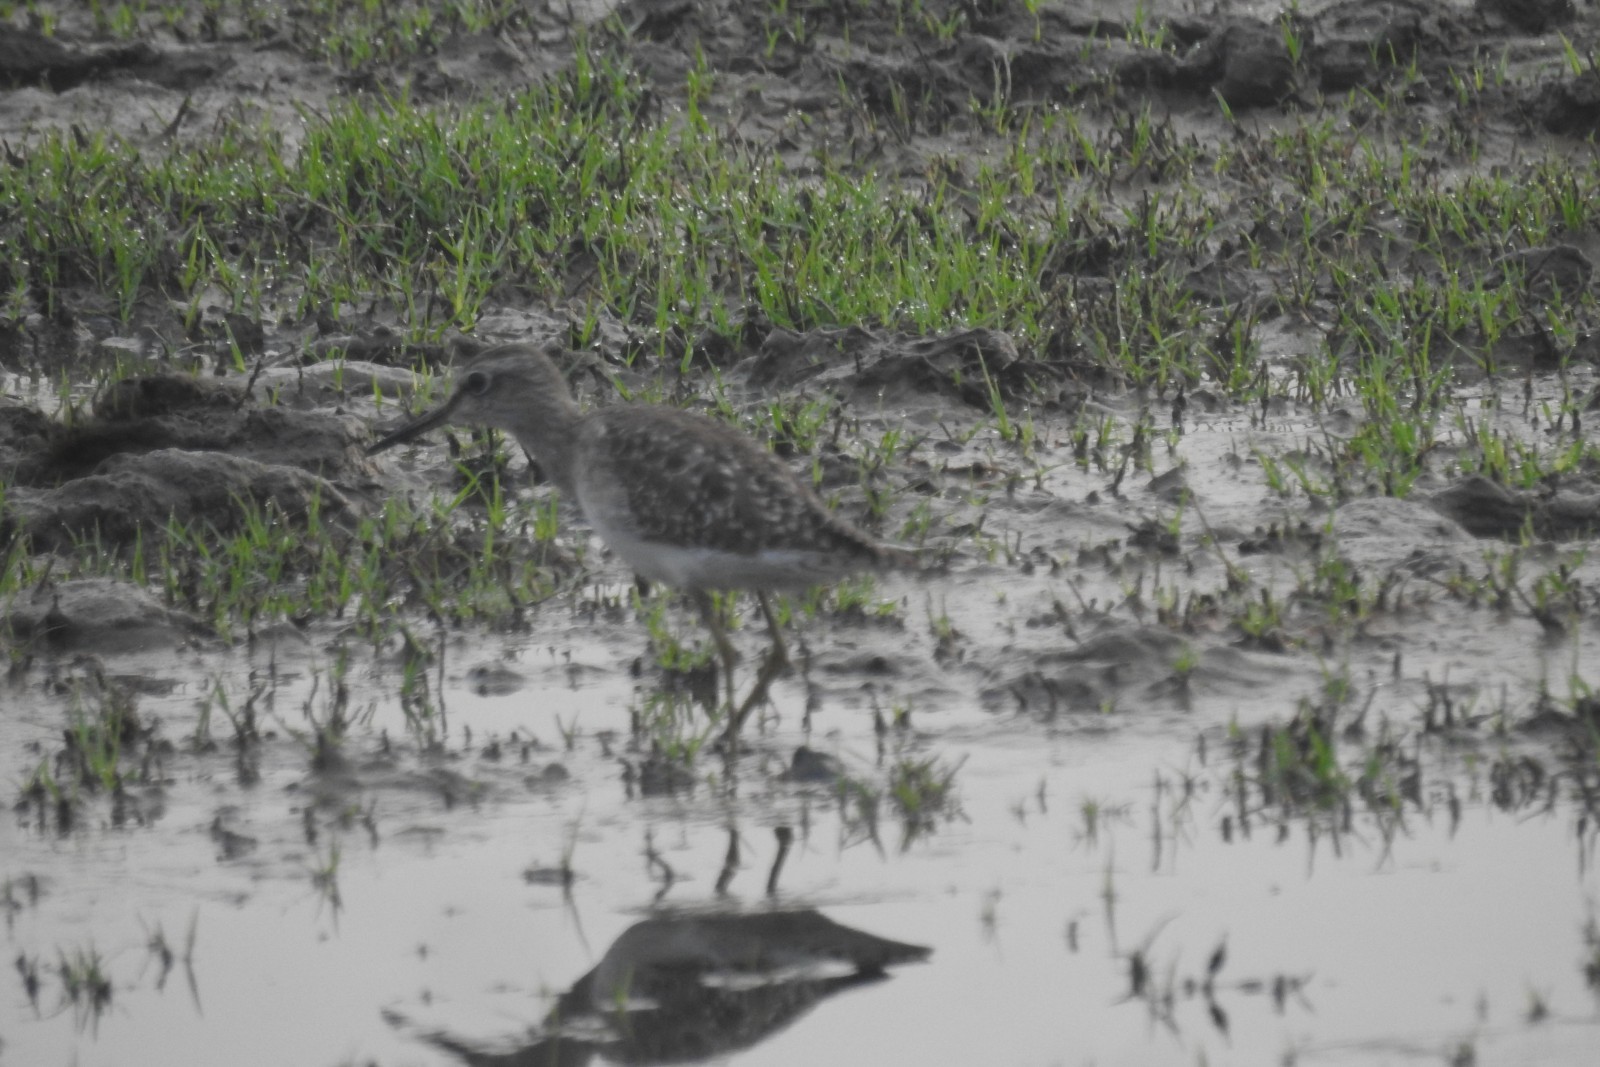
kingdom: Animalia
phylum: Chordata
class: Aves
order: Charadriiformes
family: Scolopacidae
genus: Tringa
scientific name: Tringa glareola
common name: Wood sandpiper
